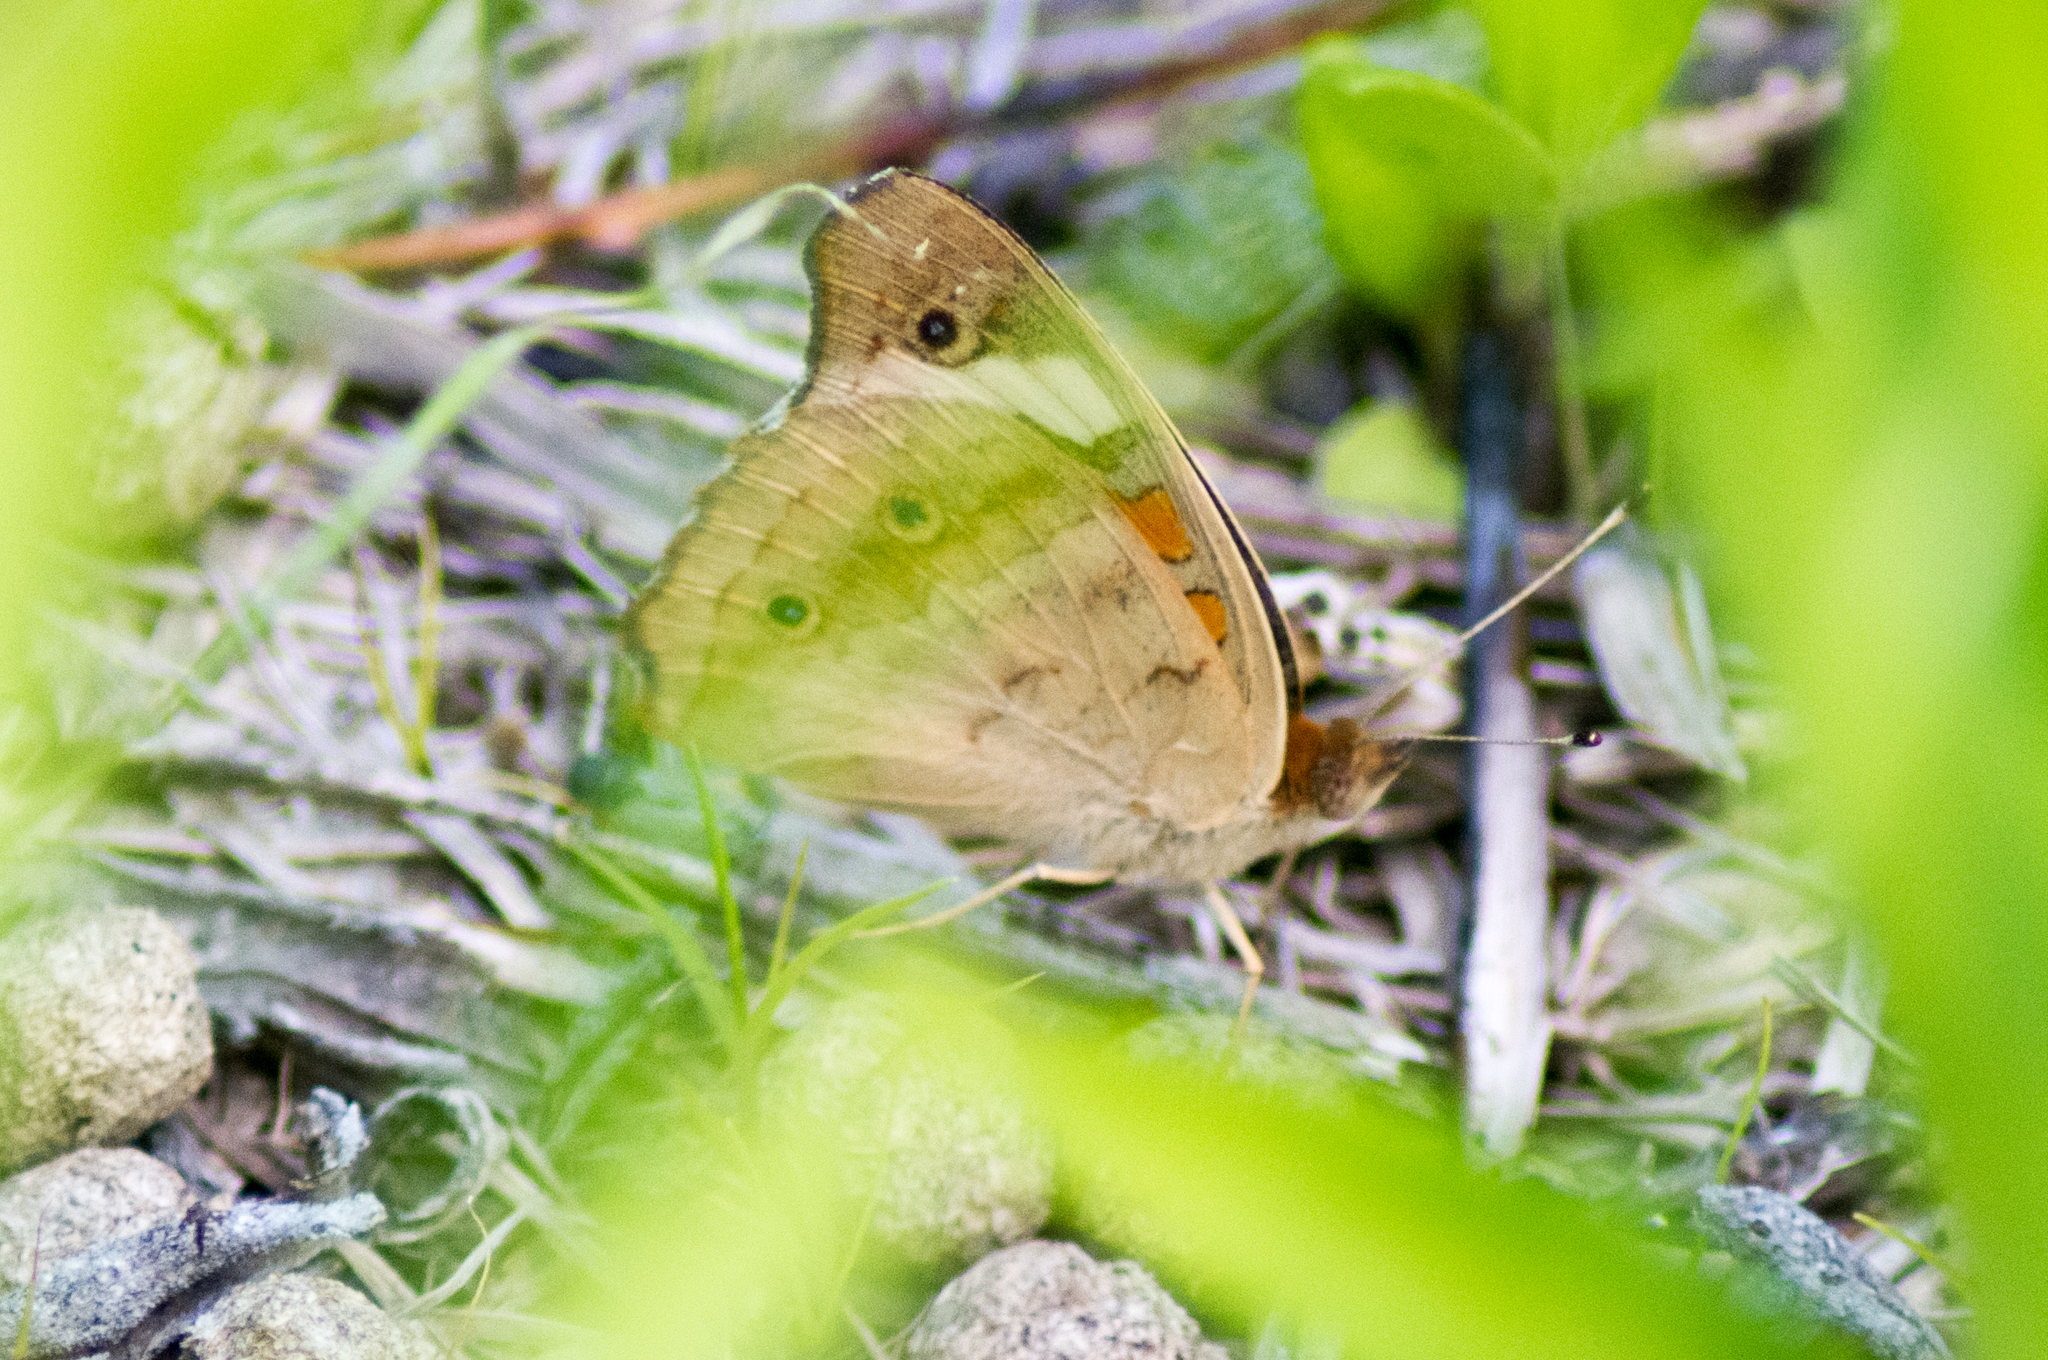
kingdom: Animalia
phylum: Arthropoda
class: Insecta
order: Lepidoptera
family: Nymphalidae
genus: Junonia
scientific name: Junonia coenia
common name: Common buckeye
